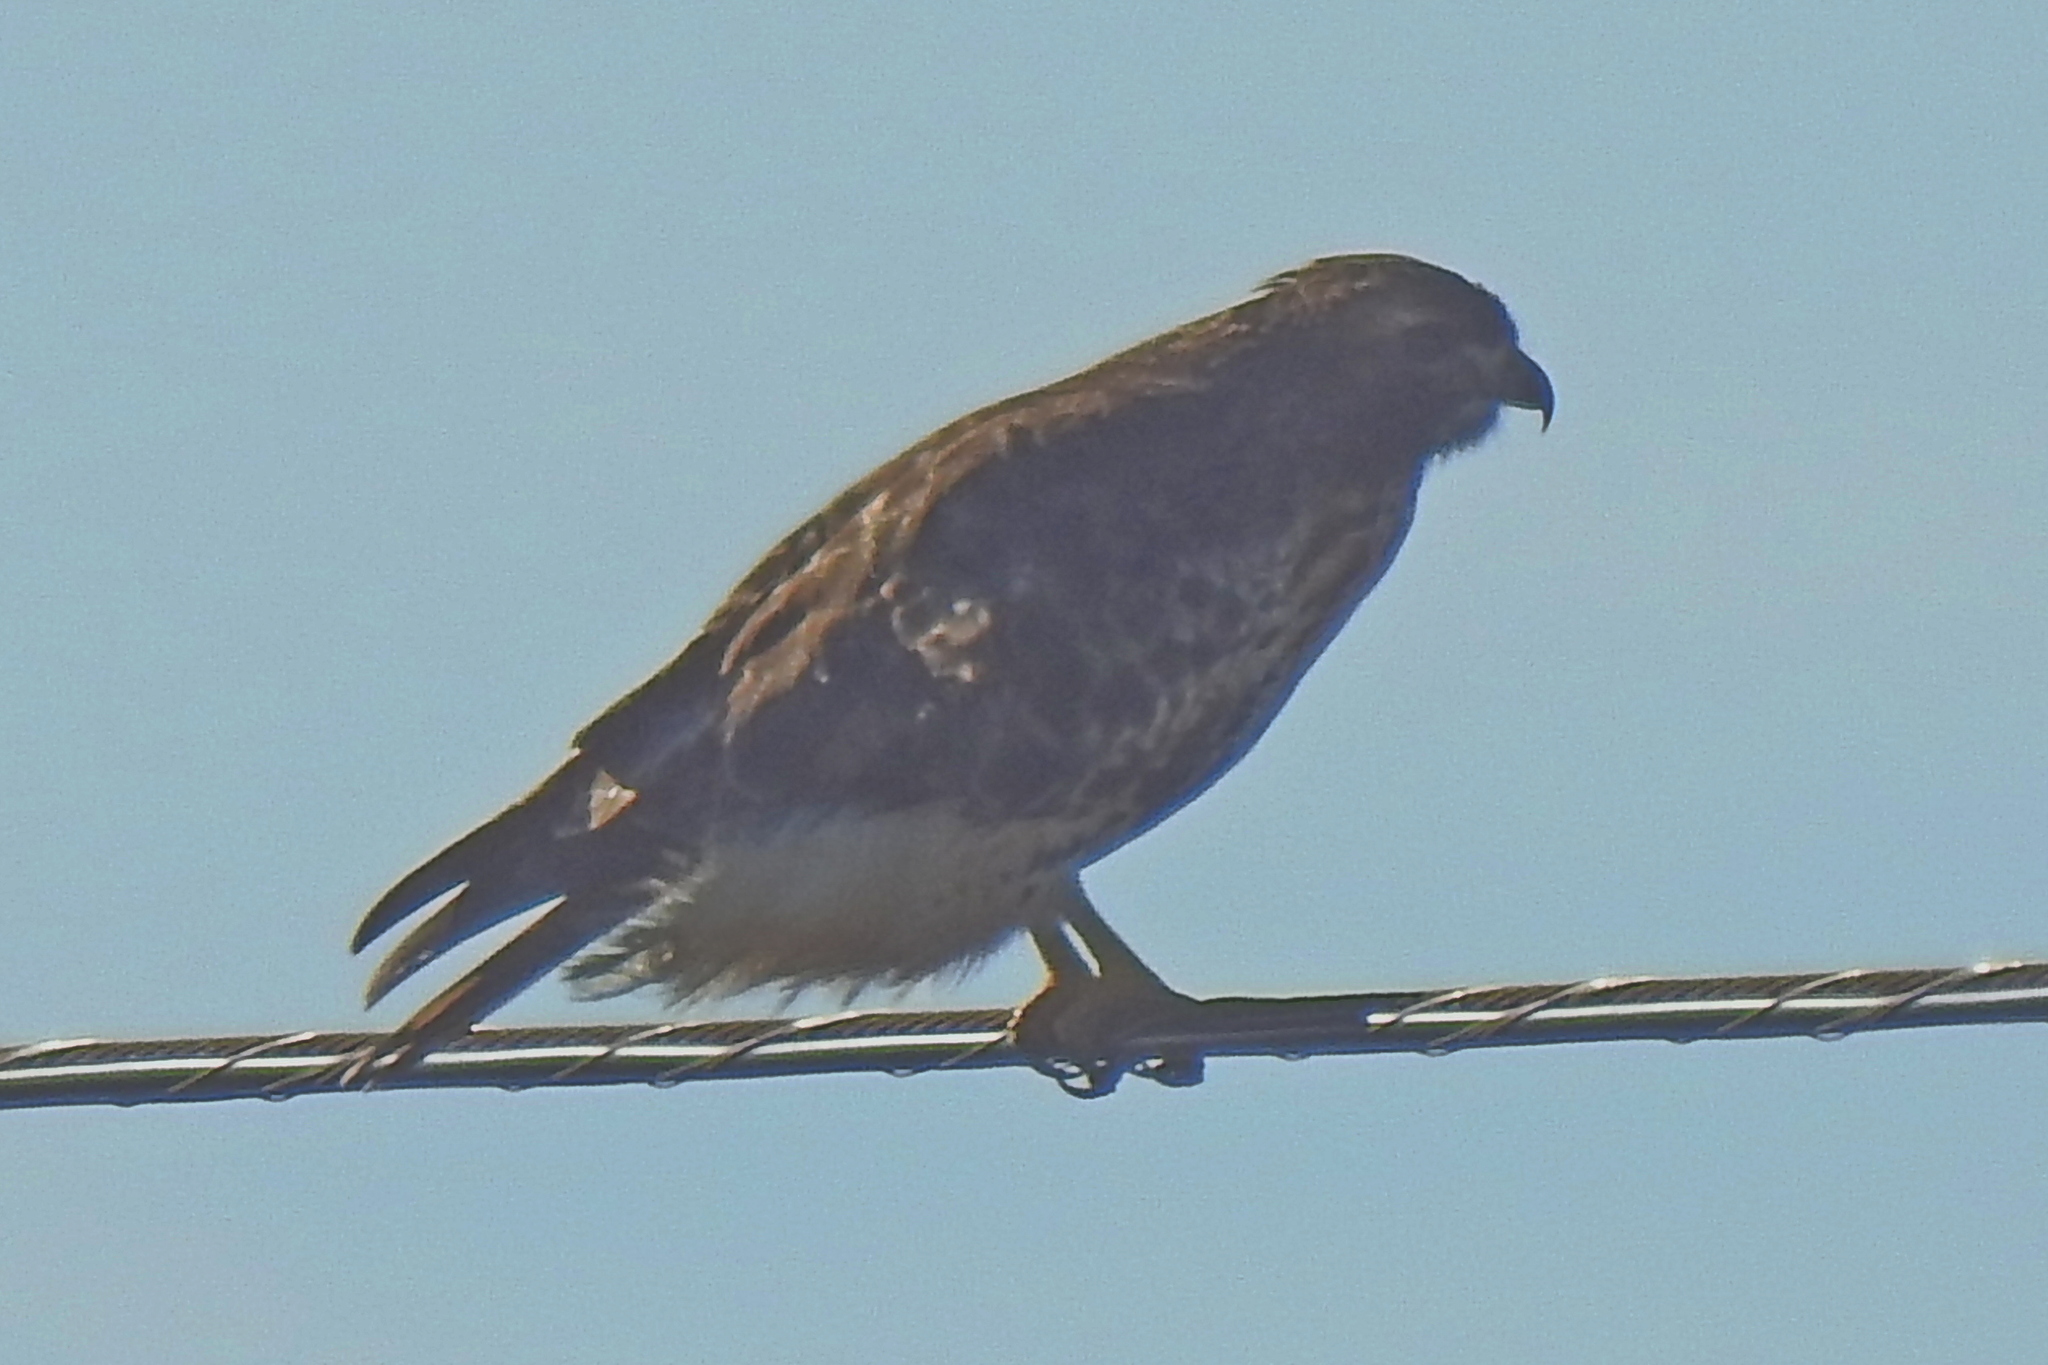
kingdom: Animalia
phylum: Chordata
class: Aves
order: Accipitriformes
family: Accipitridae
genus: Buteo
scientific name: Buteo jamaicensis
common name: Red-tailed hawk
